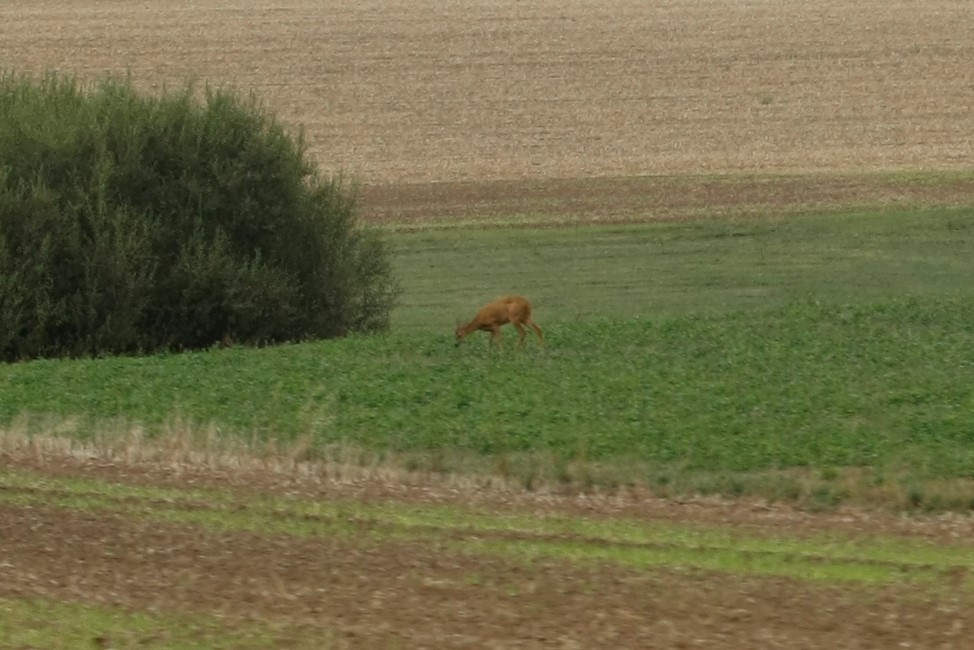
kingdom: Animalia
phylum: Chordata
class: Mammalia
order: Artiodactyla
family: Cervidae
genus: Capreolus
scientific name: Capreolus capreolus
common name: Western roe deer
